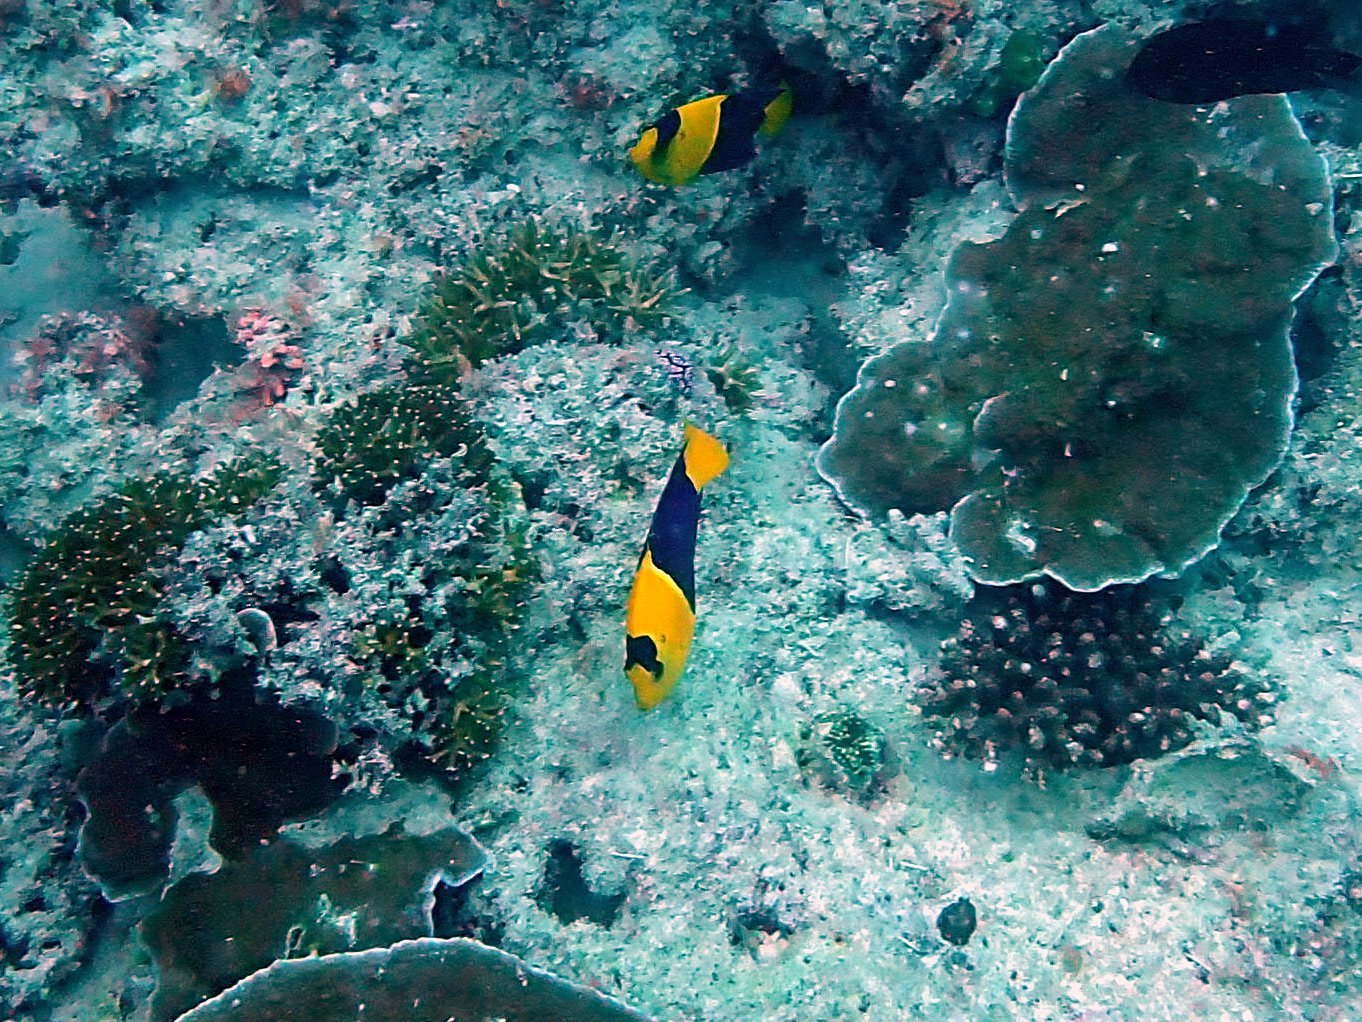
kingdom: Animalia
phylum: Chordata
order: Perciformes
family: Pomacanthidae
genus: Centropyge
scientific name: Centropyge bicolor
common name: Bicolor angelfish
